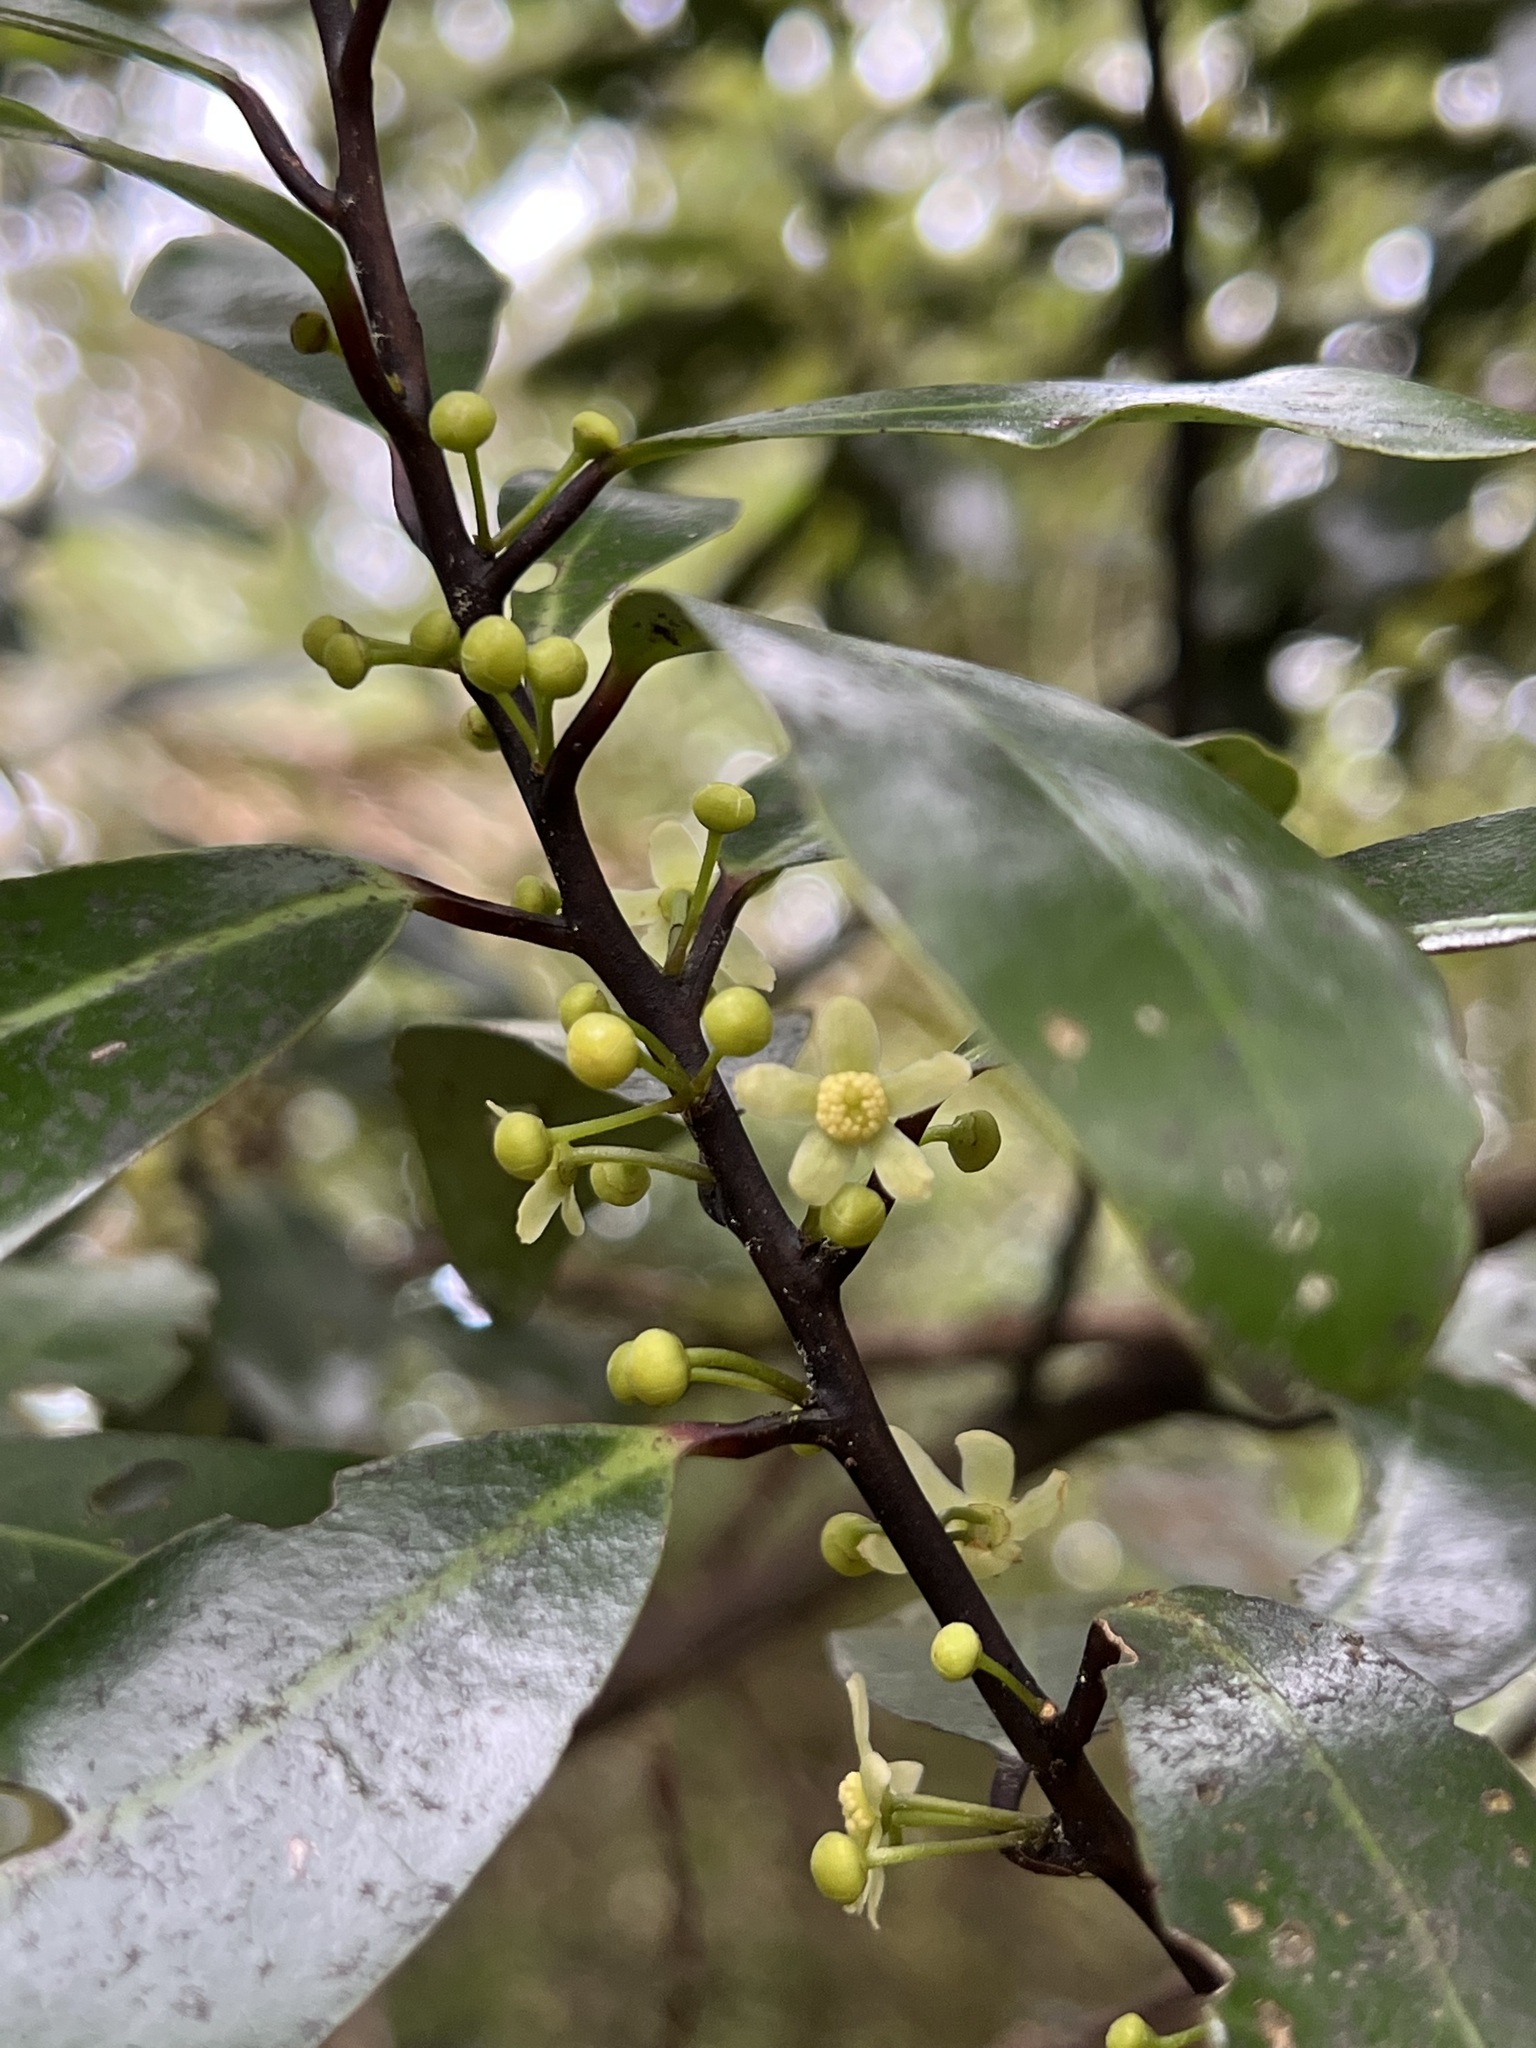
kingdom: Plantae
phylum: Tracheophyta
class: Magnoliopsida
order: Canellales
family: Winteraceae
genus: Pseudowintera
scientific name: Pseudowintera axillaris
